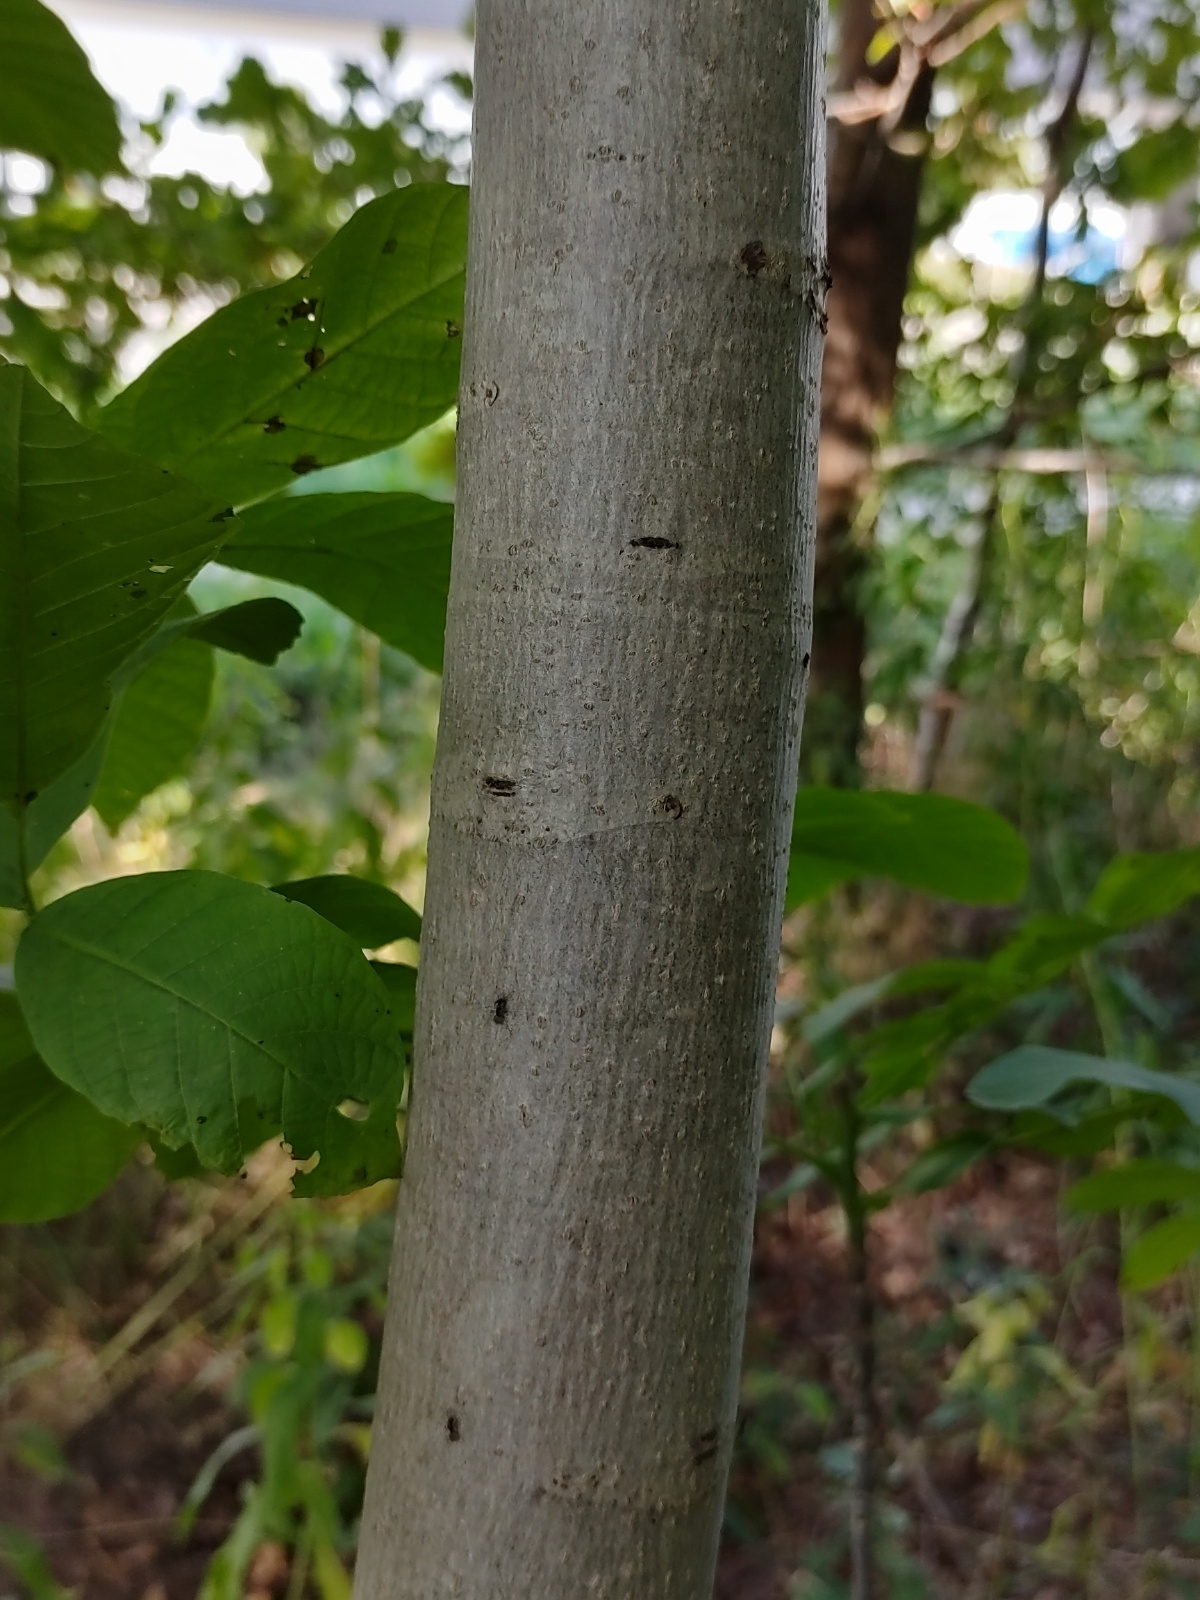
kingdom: Plantae
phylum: Tracheophyta
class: Magnoliopsida
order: Fagales
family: Juglandaceae
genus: Juglans
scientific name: Juglans regia
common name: Walnut
